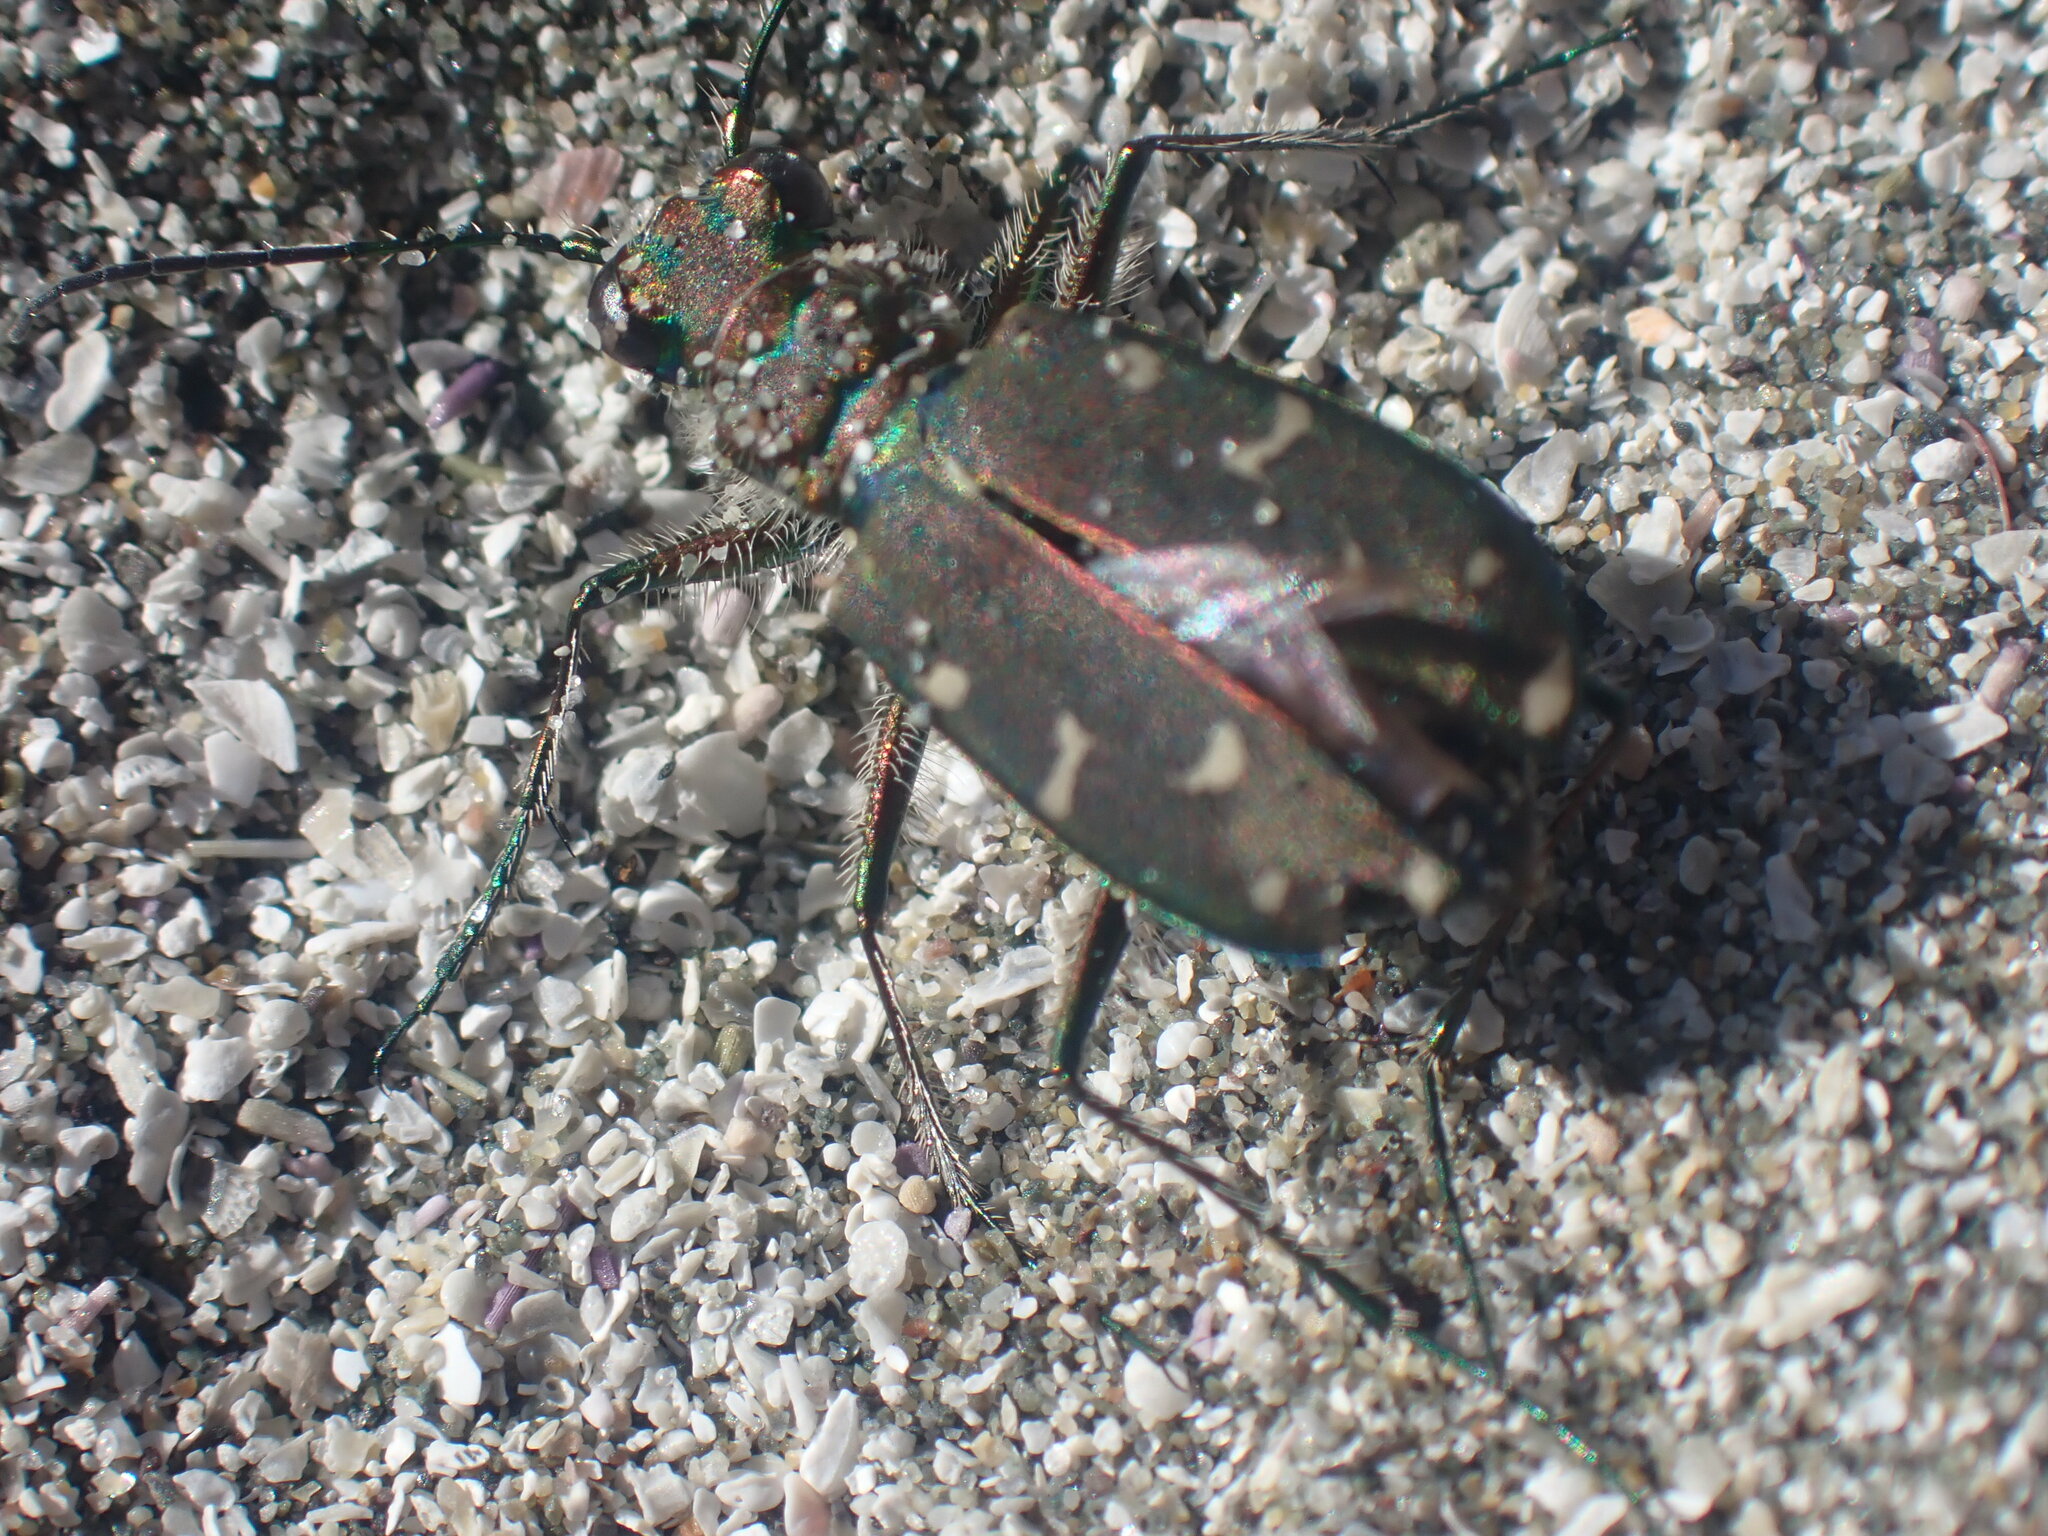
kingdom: Animalia
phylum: Arthropoda
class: Insecta
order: Coleoptera
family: Carabidae
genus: Cicindela
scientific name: Cicindela oregona
